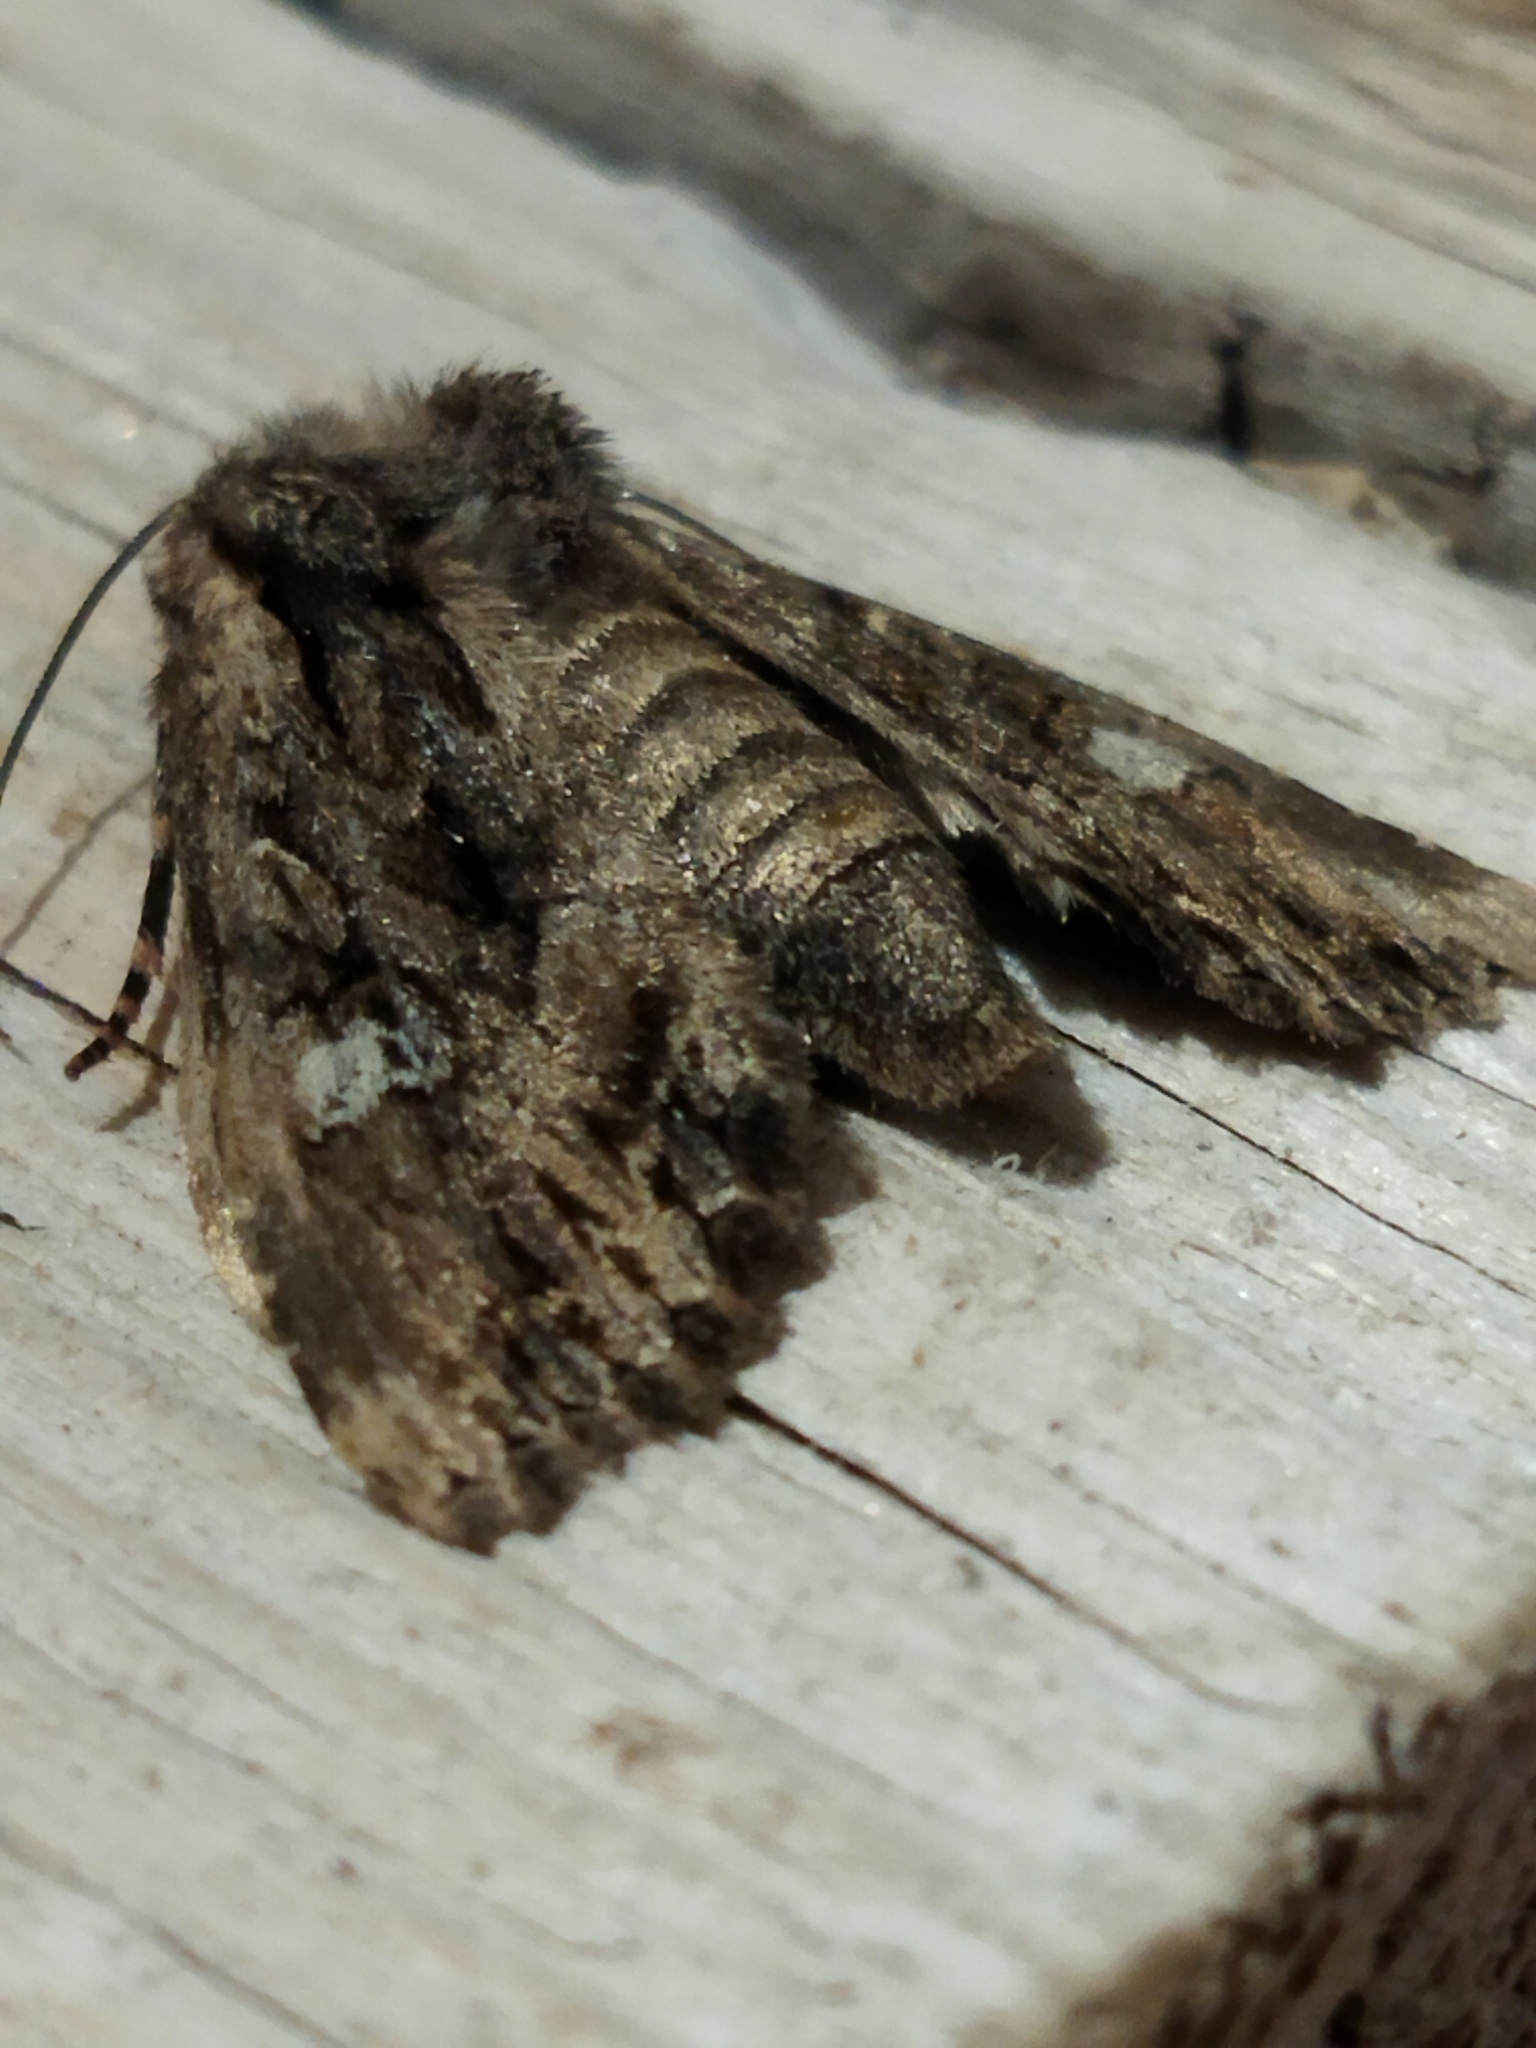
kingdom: Animalia
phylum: Arthropoda
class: Insecta
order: Lepidoptera
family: Noctuidae
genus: Polymixis
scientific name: Polymixis trisignata
